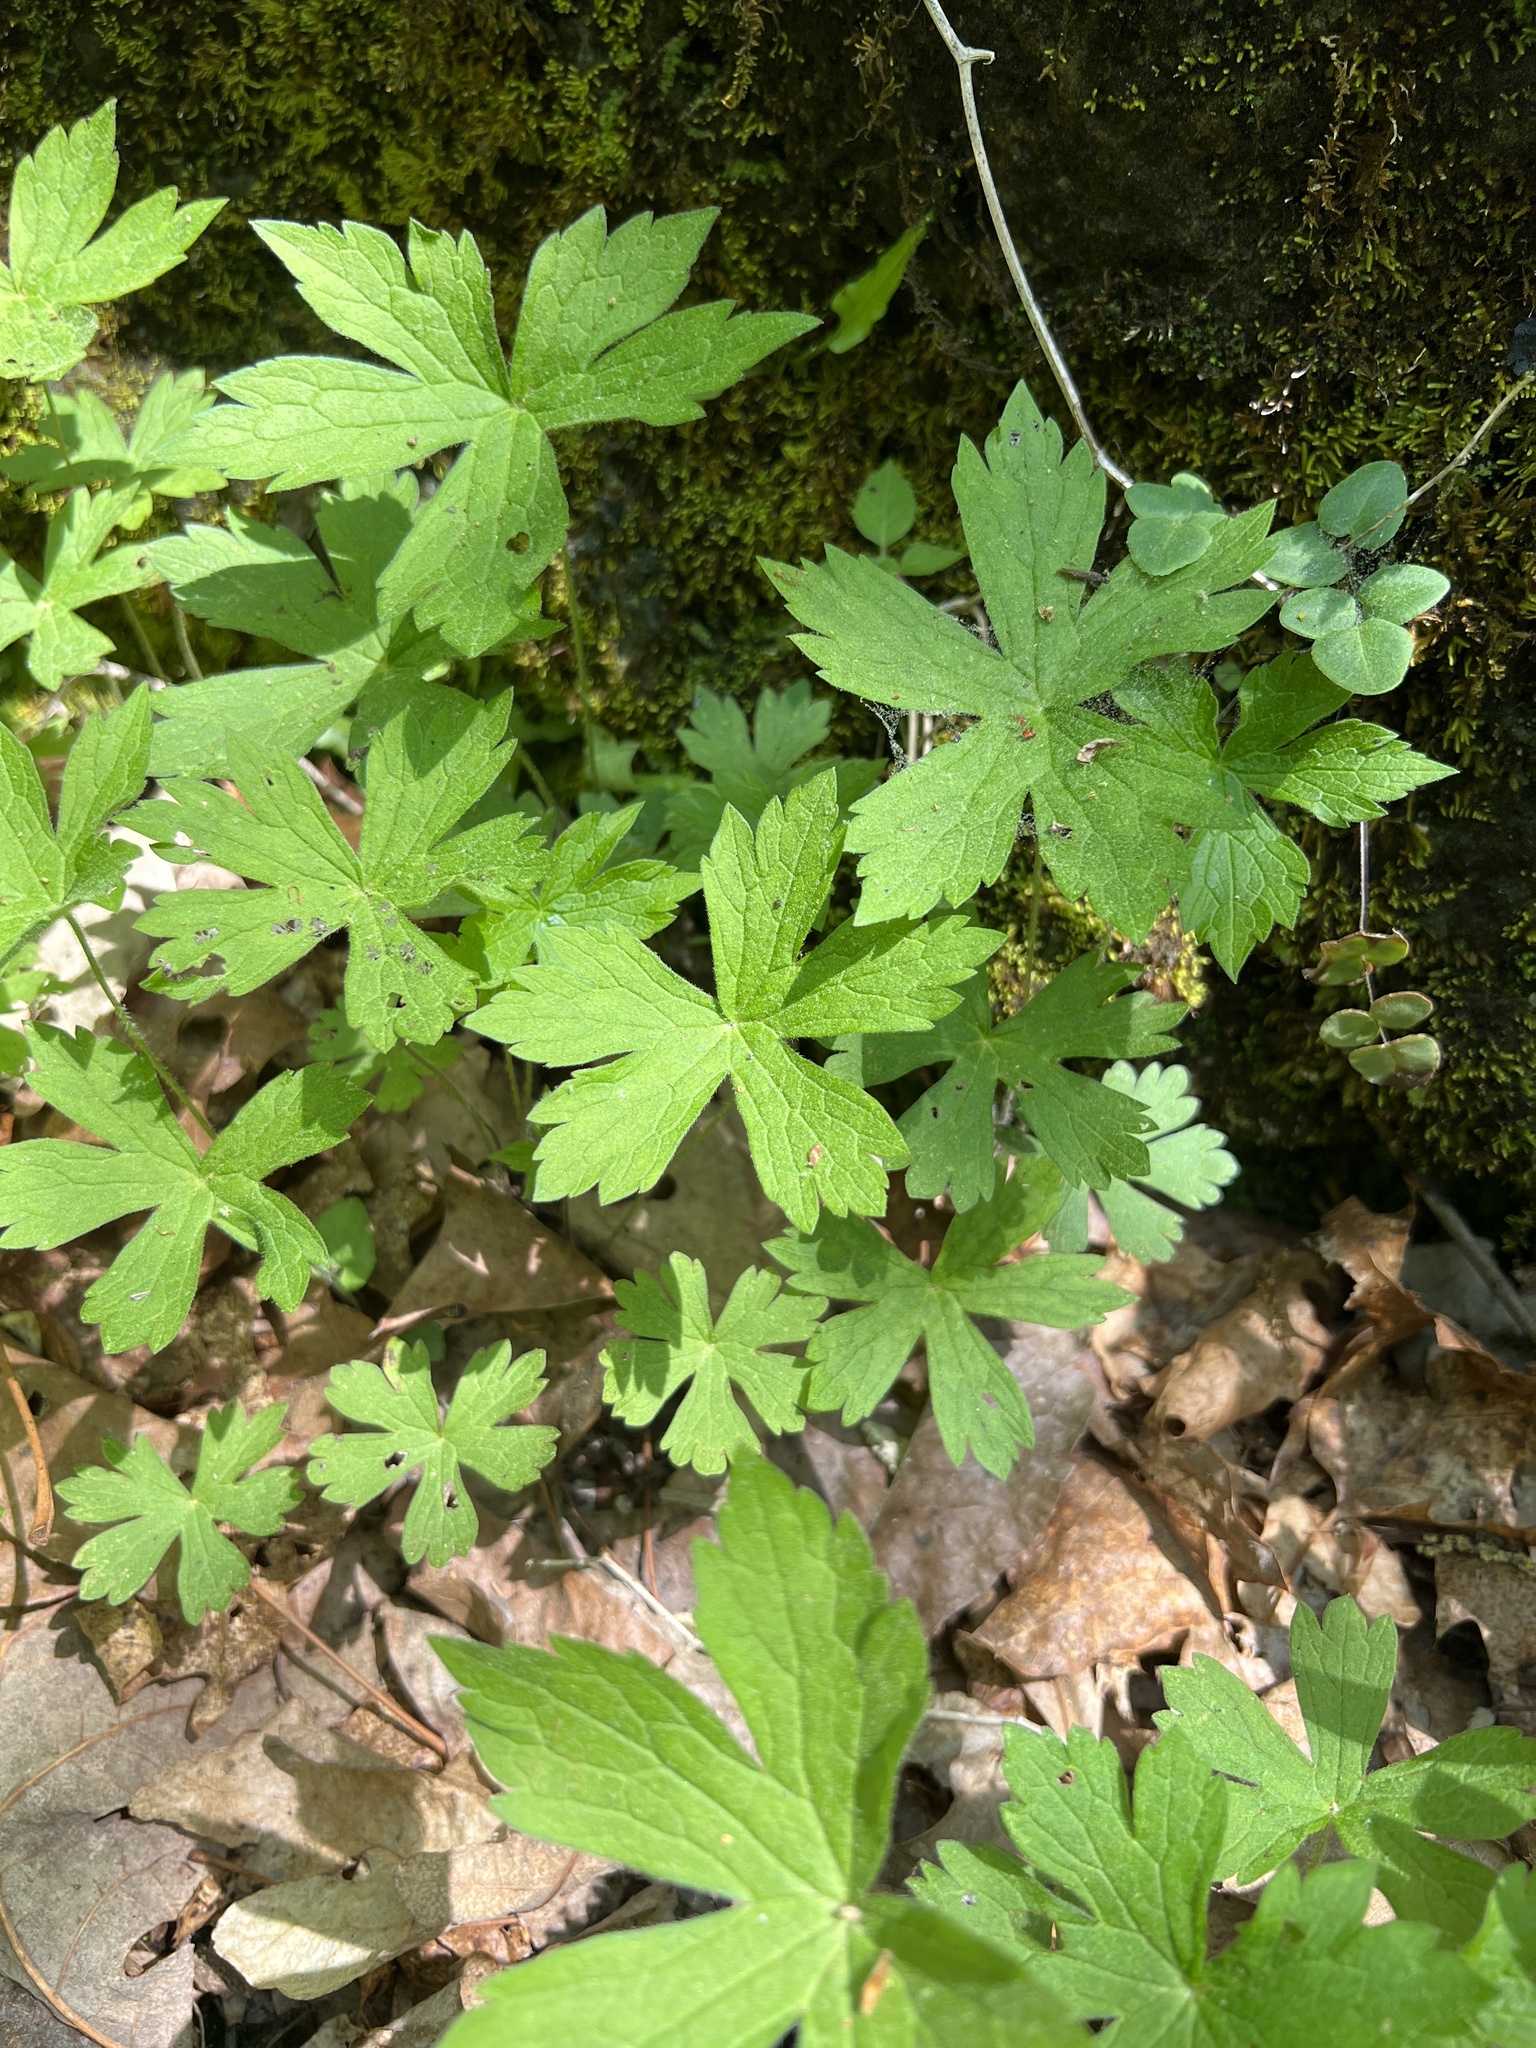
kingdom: Plantae
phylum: Tracheophyta
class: Magnoliopsida
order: Geraniales
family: Geraniaceae
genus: Geranium
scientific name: Geranium maculatum
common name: Spotted geranium
